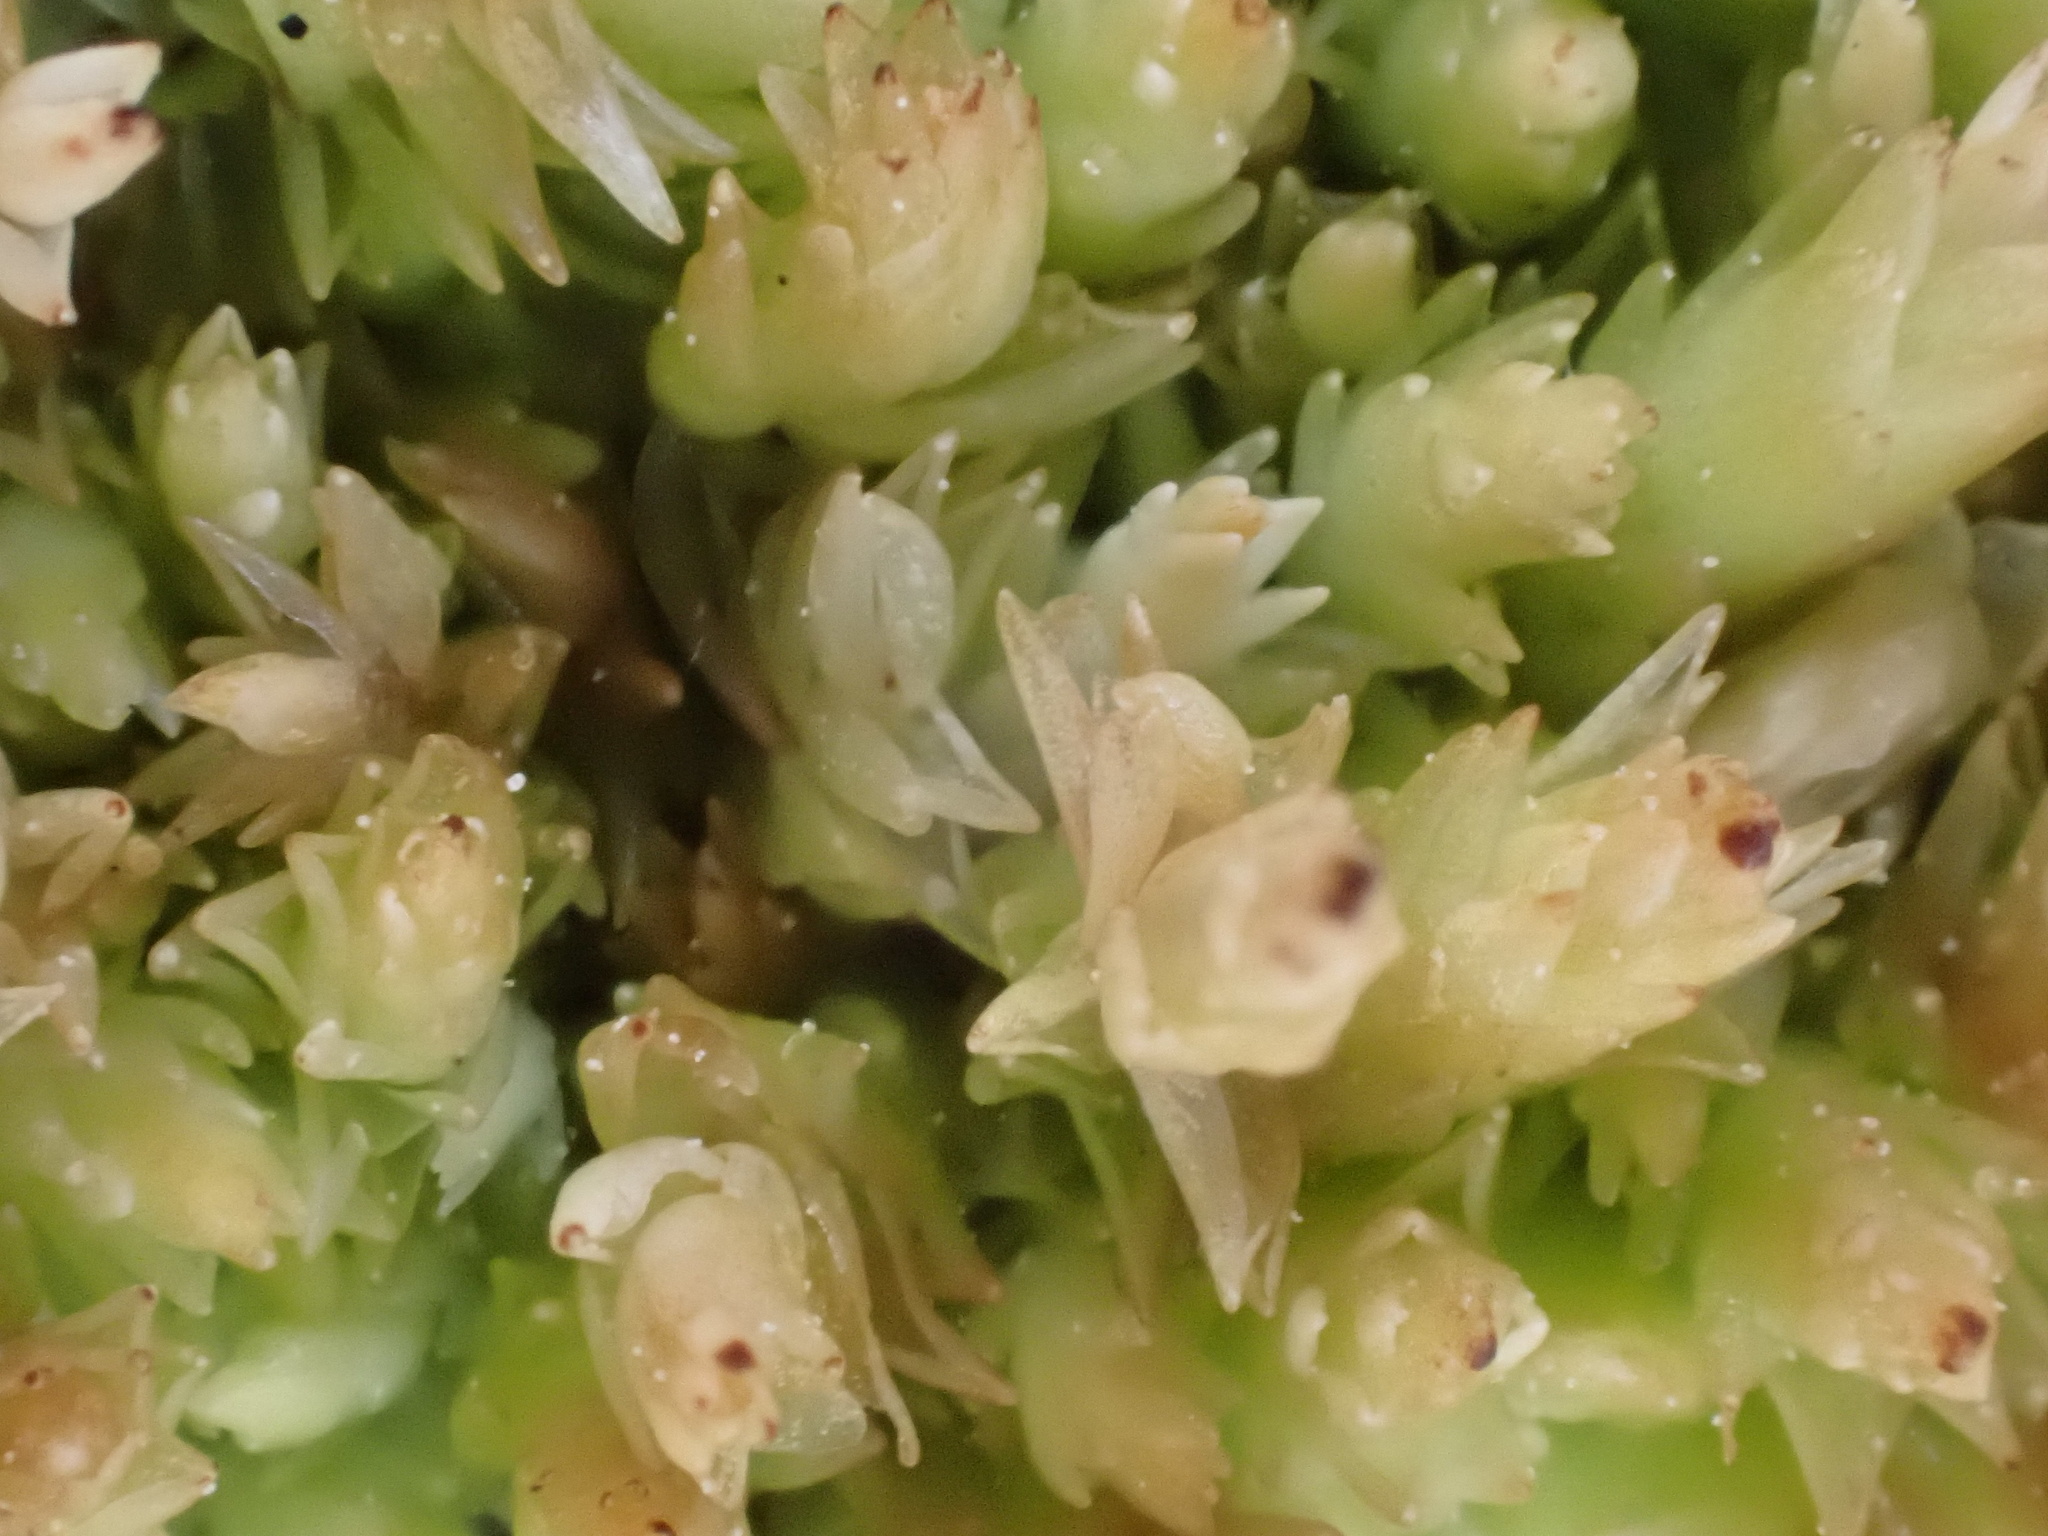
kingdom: Plantae
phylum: Bryophyta
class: Sphagnopsida
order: Sphagnales
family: Sphagnaceae
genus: Sphagnum
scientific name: Sphagnum compactum
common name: Compact peat moss
